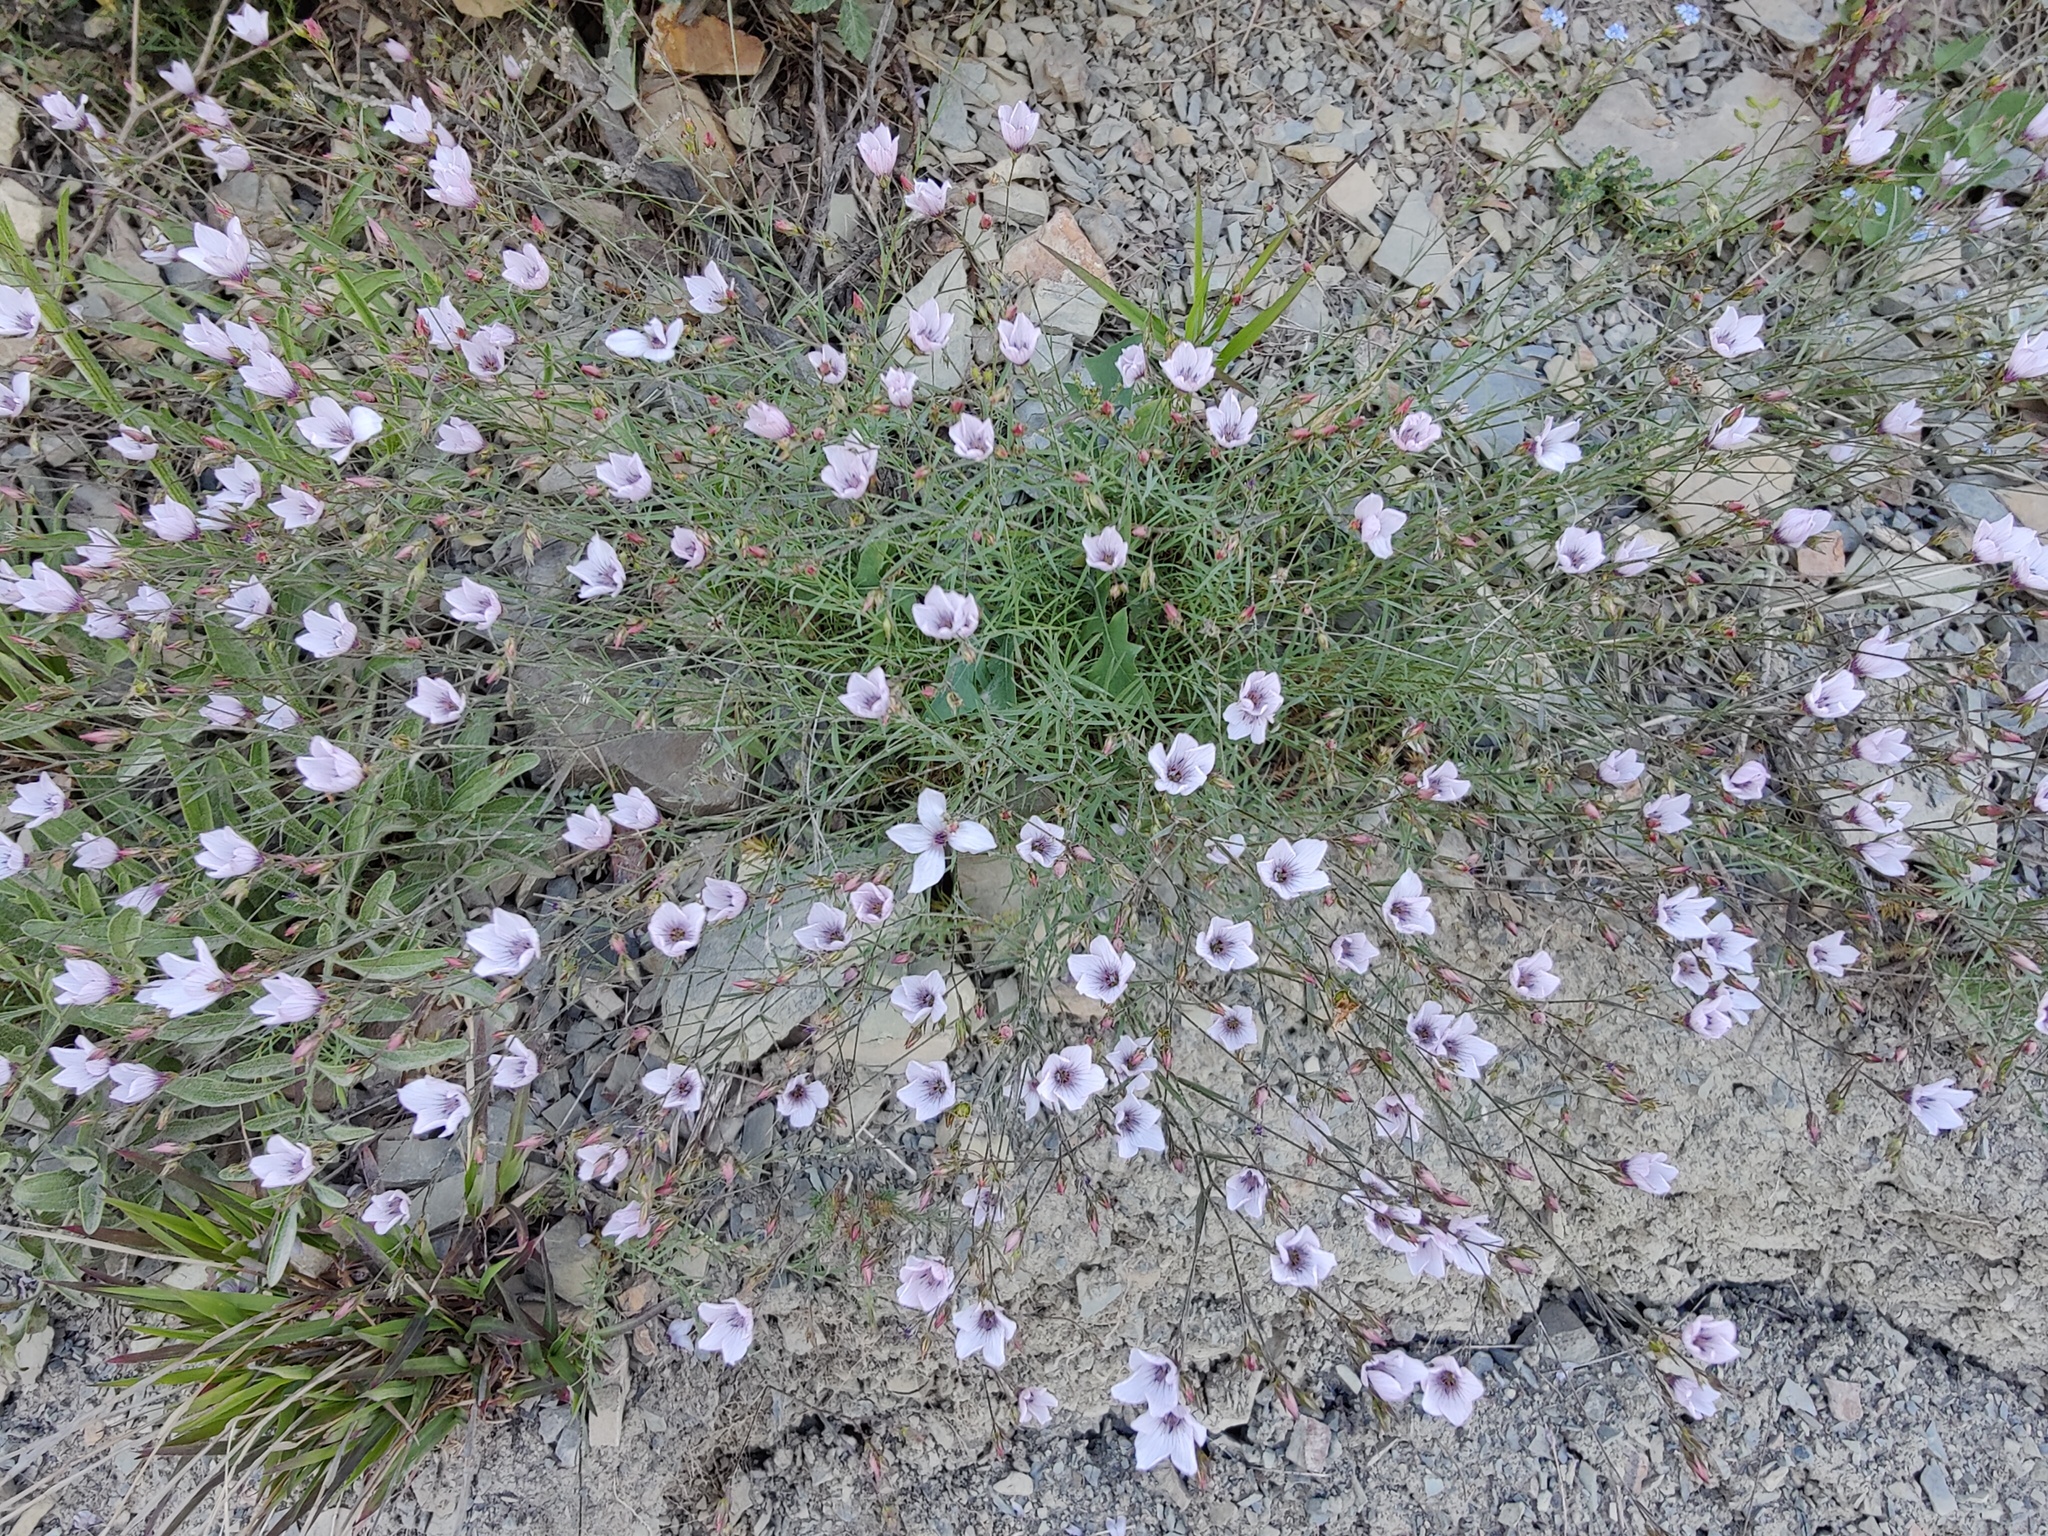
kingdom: Plantae
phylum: Tracheophyta
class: Magnoliopsida
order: Malpighiales
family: Linaceae
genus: Linum
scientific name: Linum tenuifolium
